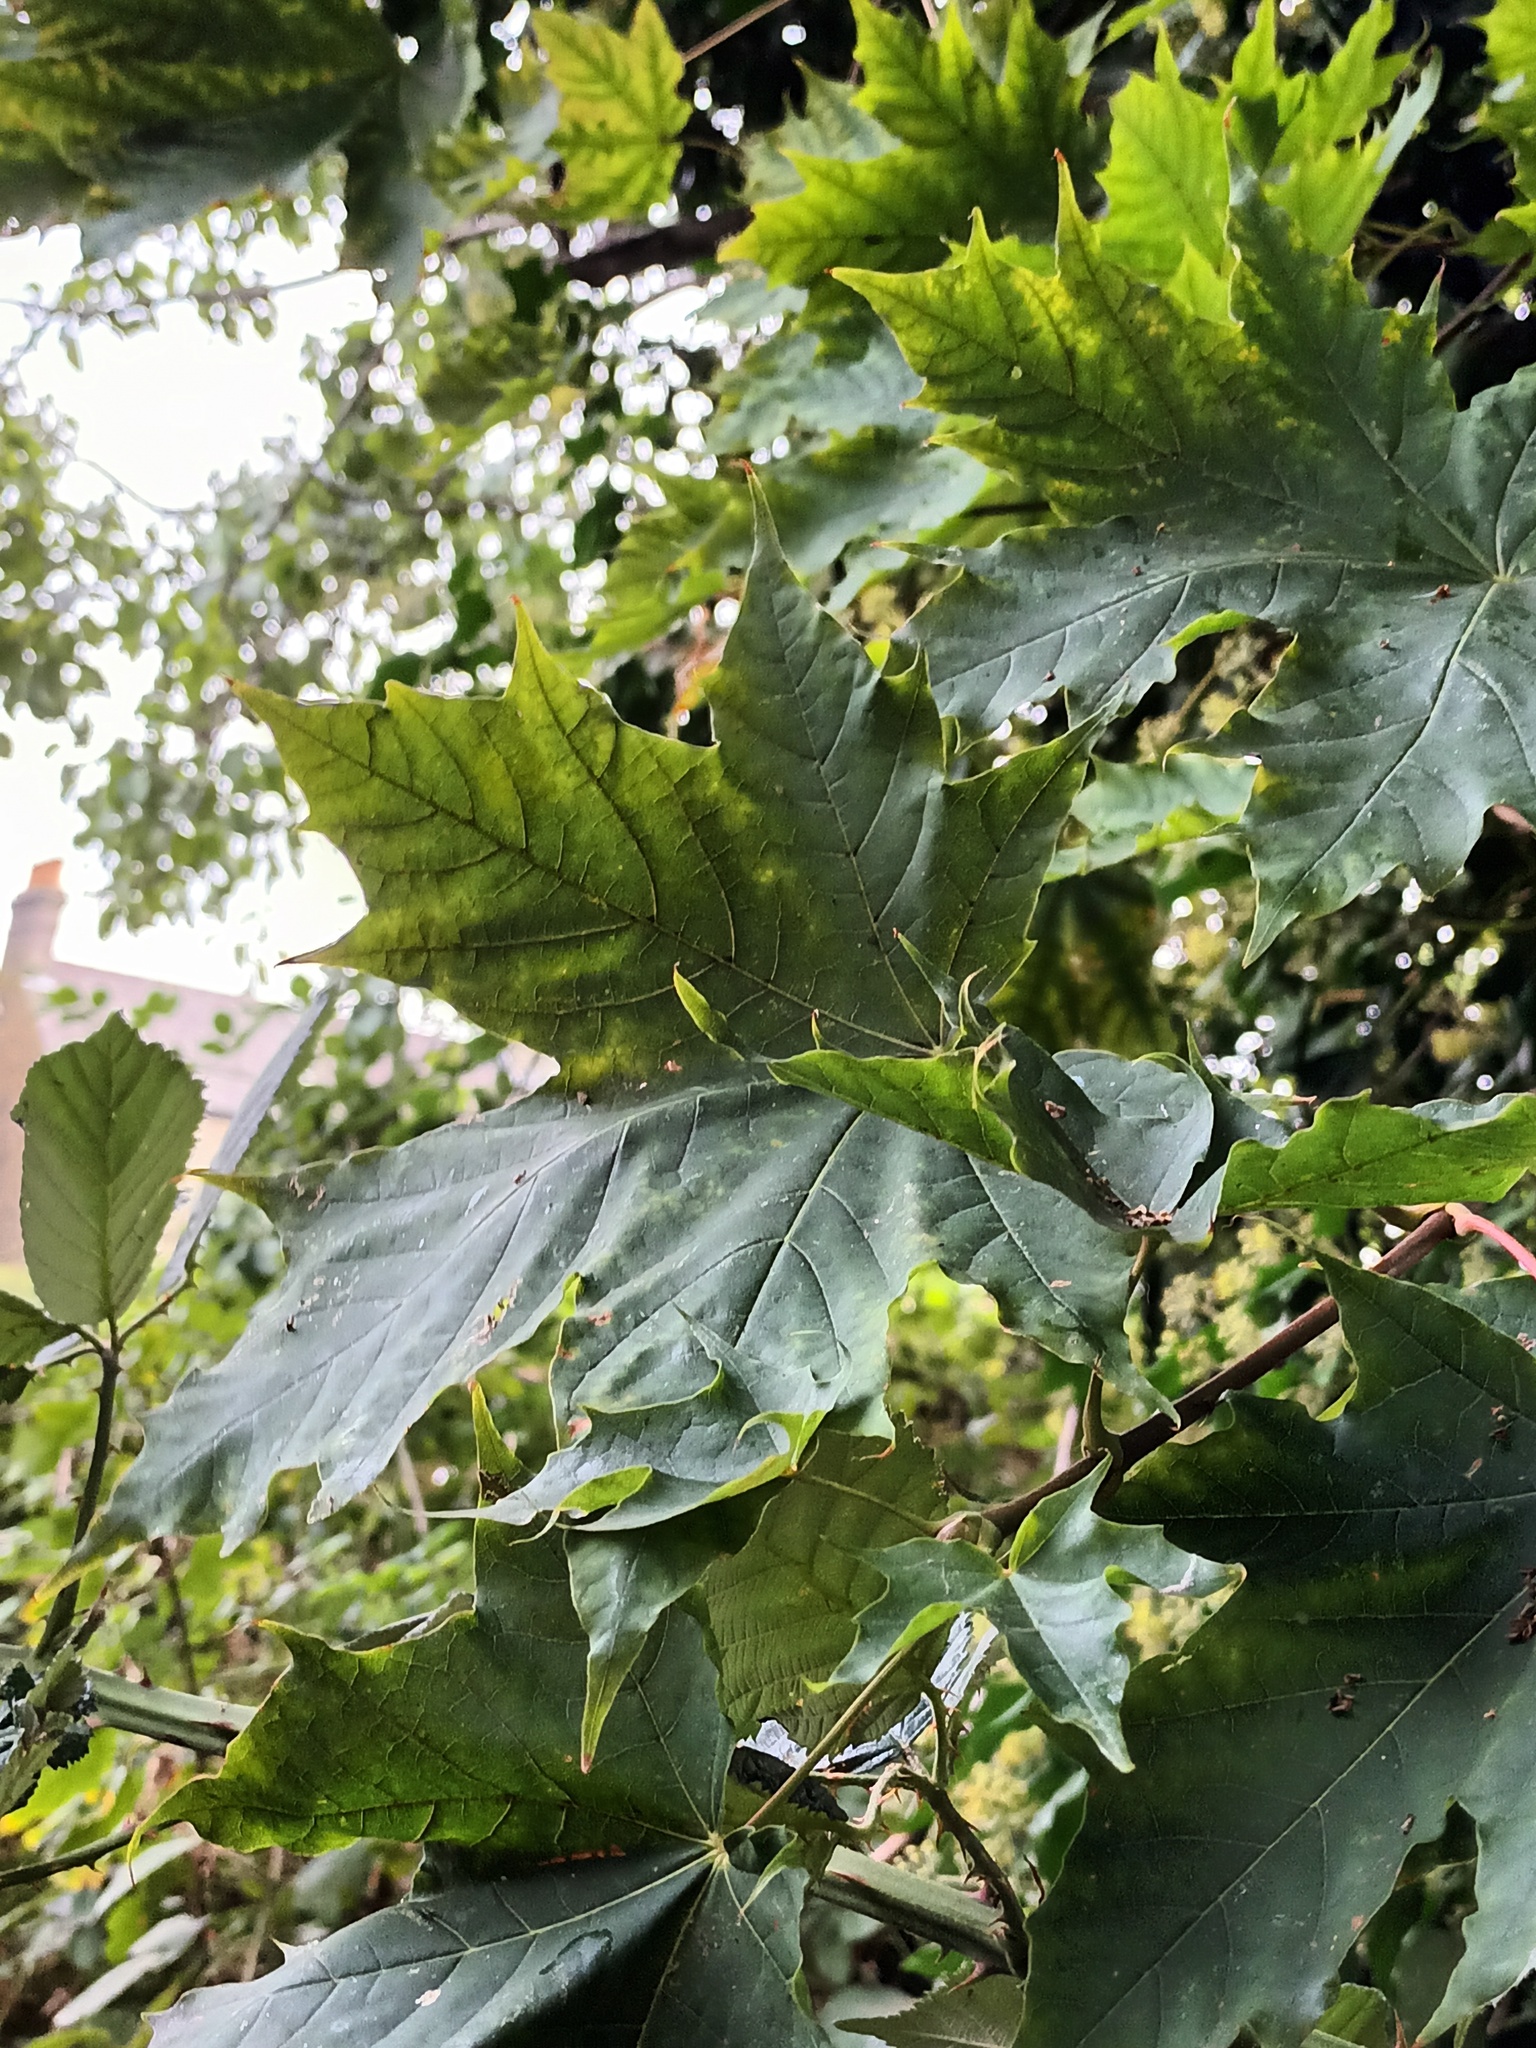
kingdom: Plantae
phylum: Tracheophyta
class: Magnoliopsida
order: Sapindales
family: Sapindaceae
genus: Acer
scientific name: Acer platanoides
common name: Norway maple
